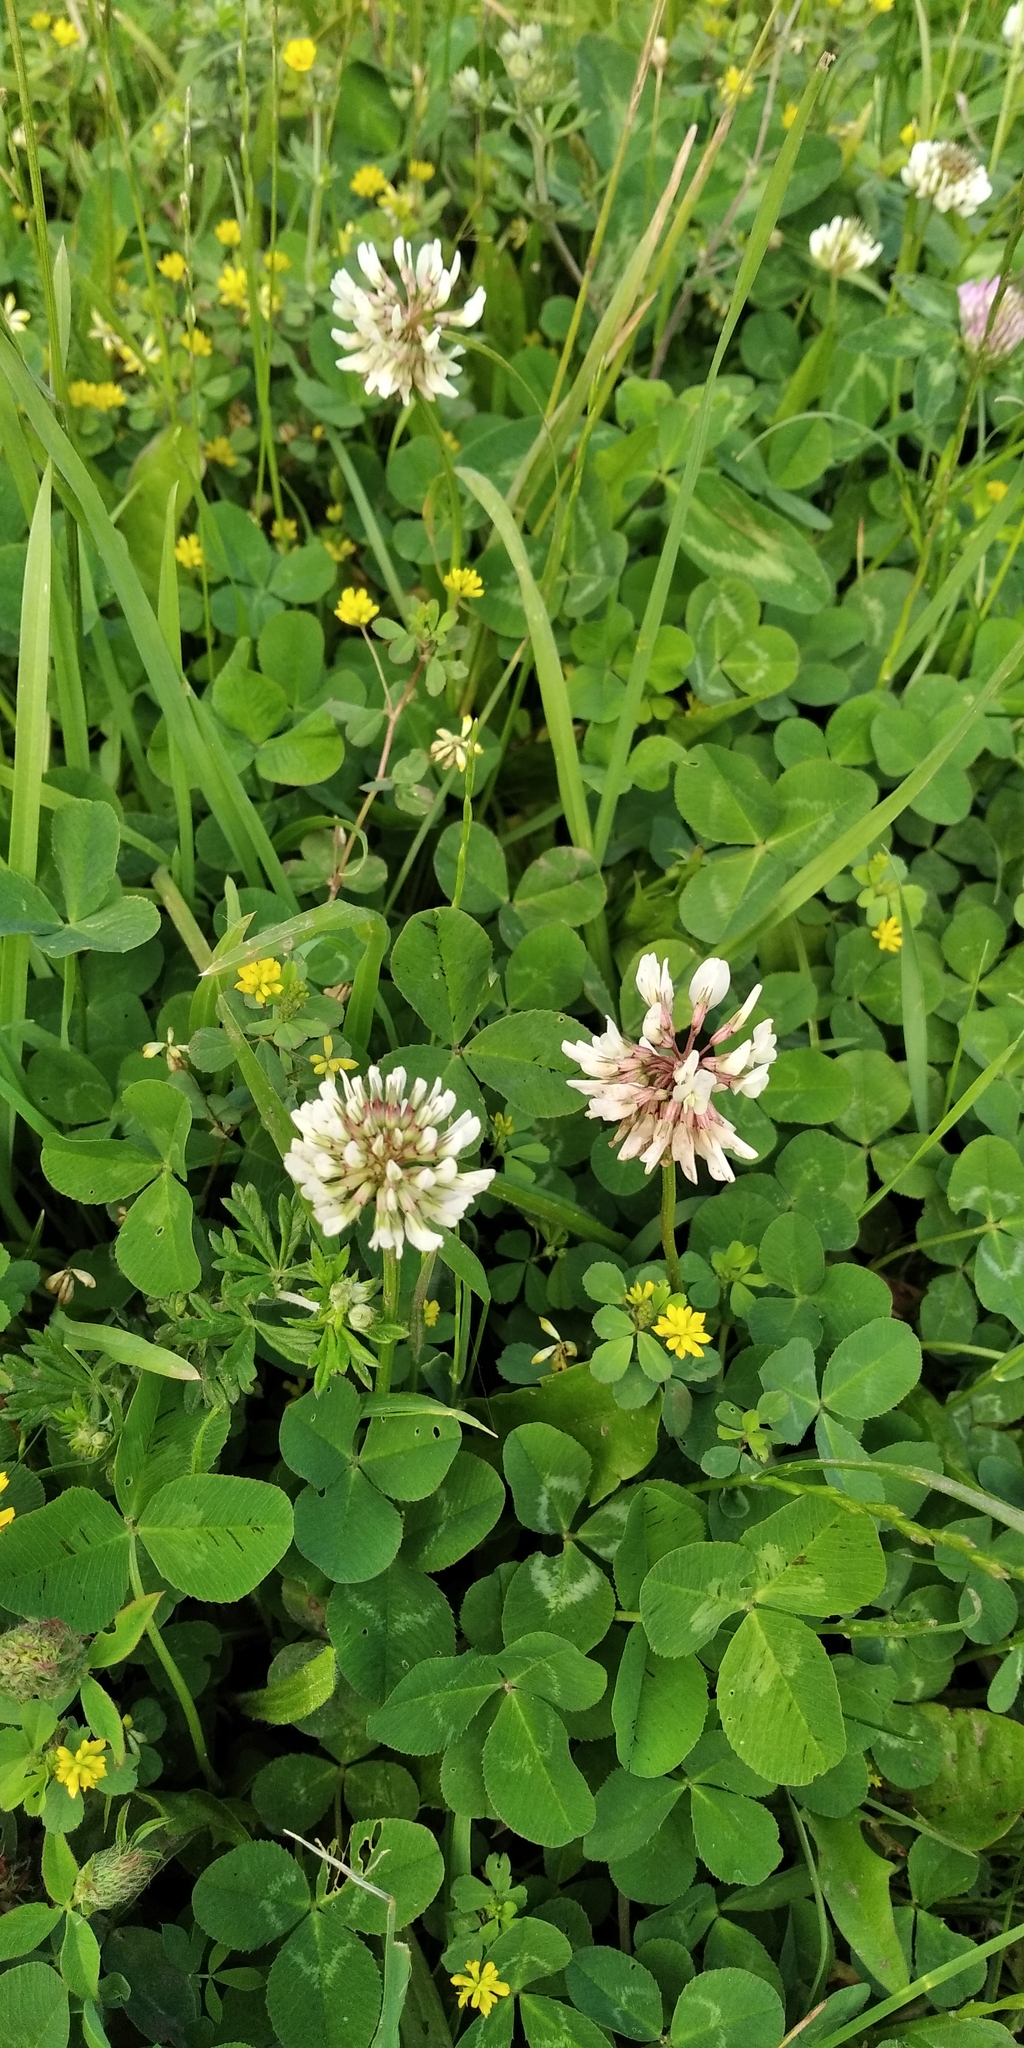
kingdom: Plantae
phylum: Tracheophyta
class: Magnoliopsida
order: Fabales
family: Fabaceae
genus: Trifolium
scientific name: Trifolium repens
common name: White clover
